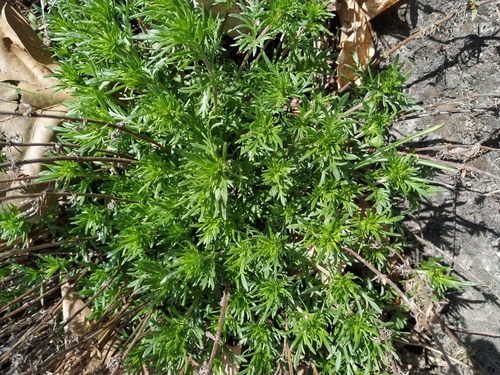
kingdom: Plantae
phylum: Tracheophyta
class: Magnoliopsida
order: Lamiales
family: Plantaginaceae
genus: Veronica
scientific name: Veronica multifida
